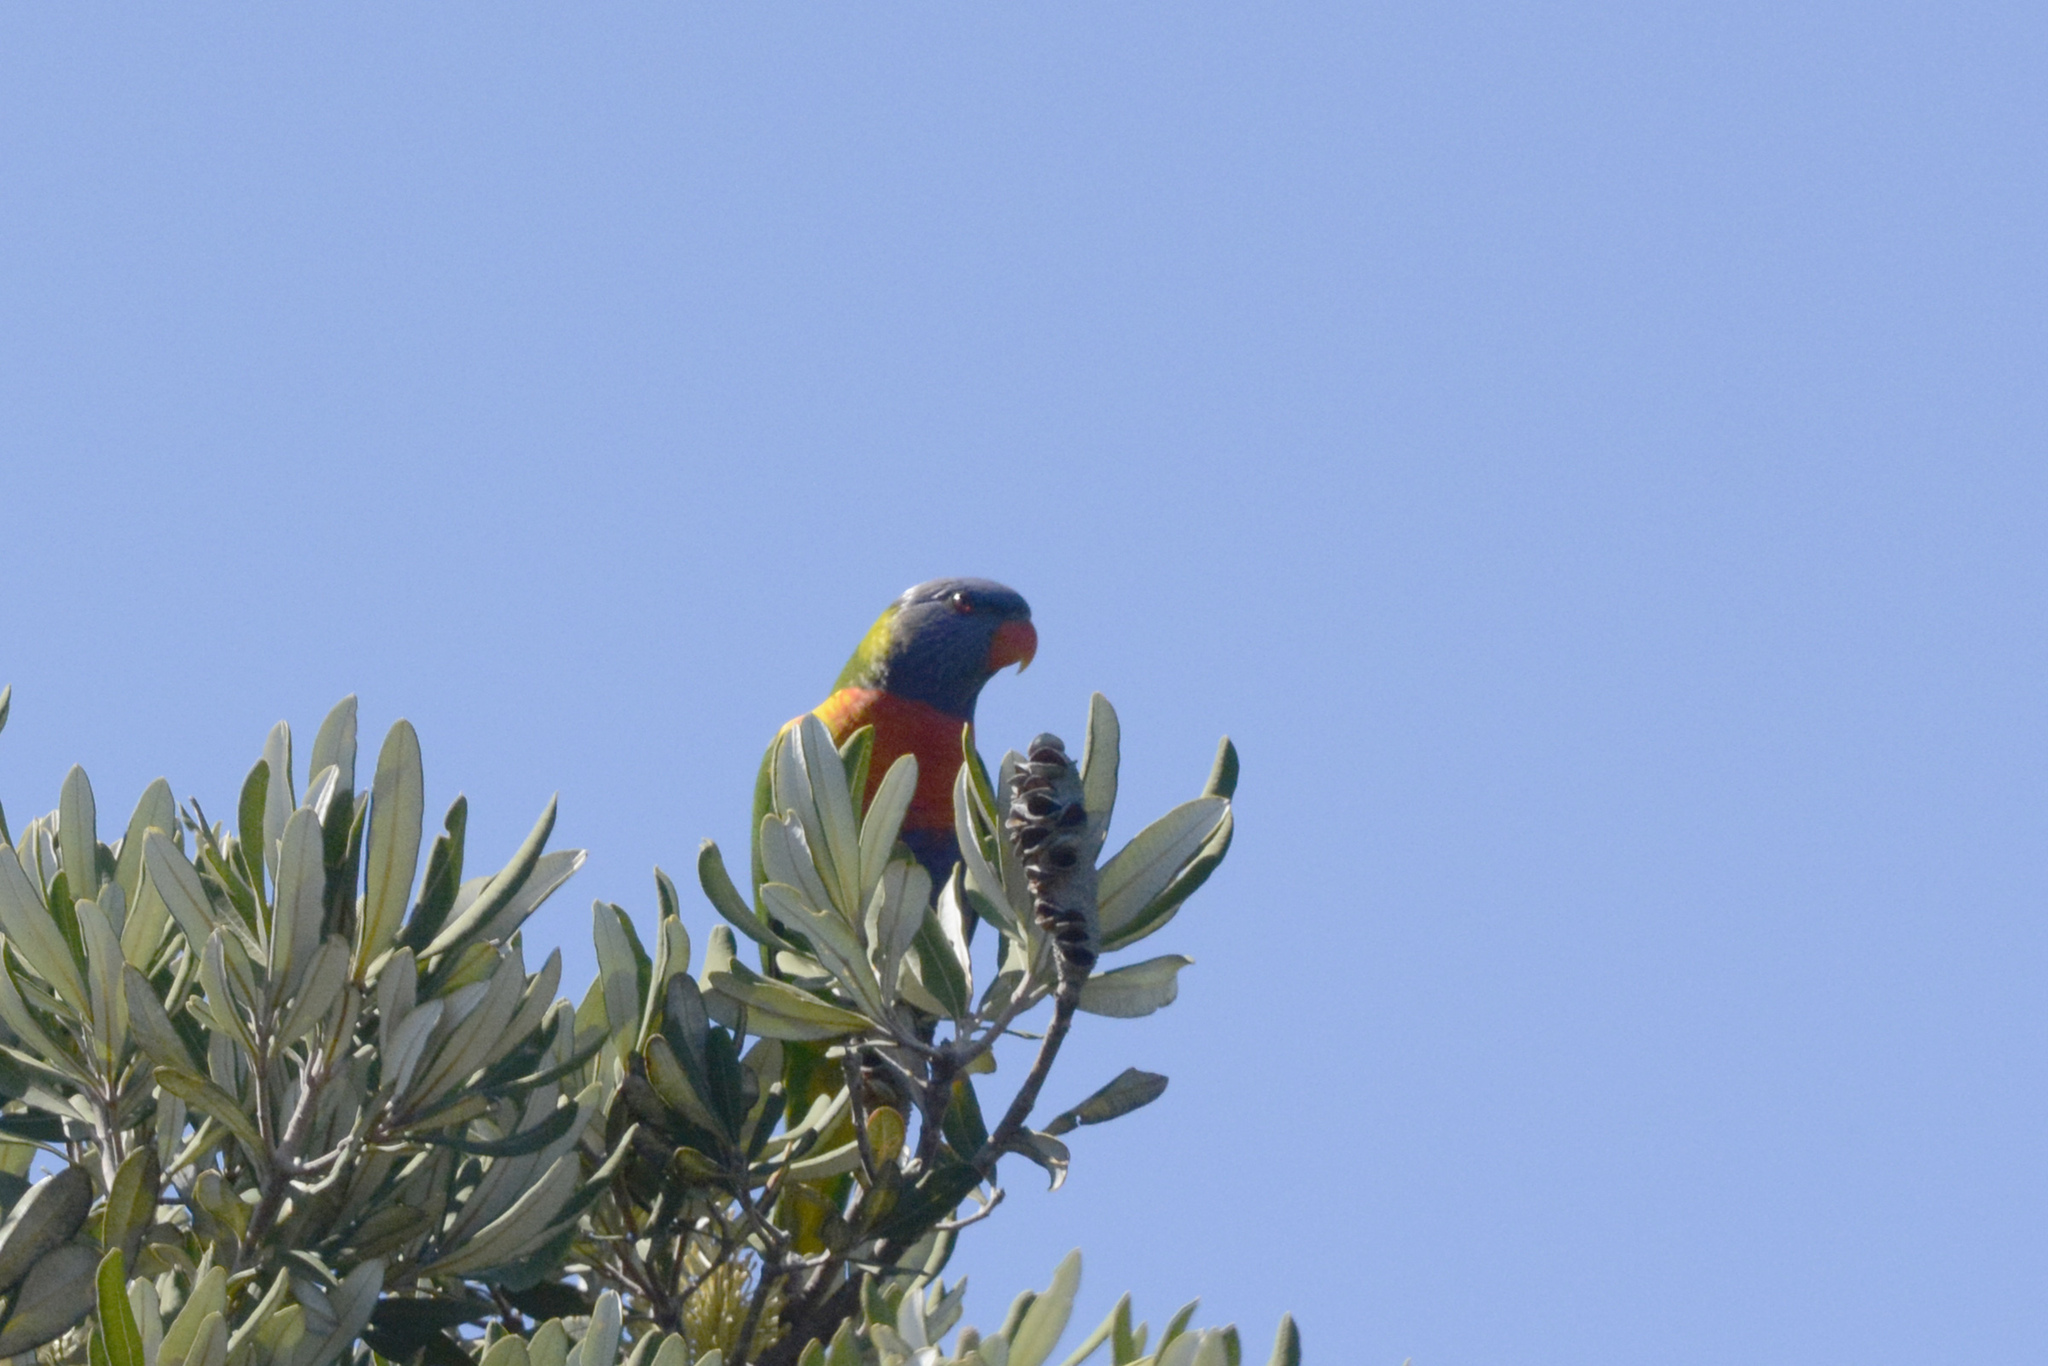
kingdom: Animalia
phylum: Chordata
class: Aves
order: Psittaciformes
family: Psittacidae
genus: Trichoglossus
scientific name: Trichoglossus haematodus
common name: Coconut lorikeet
